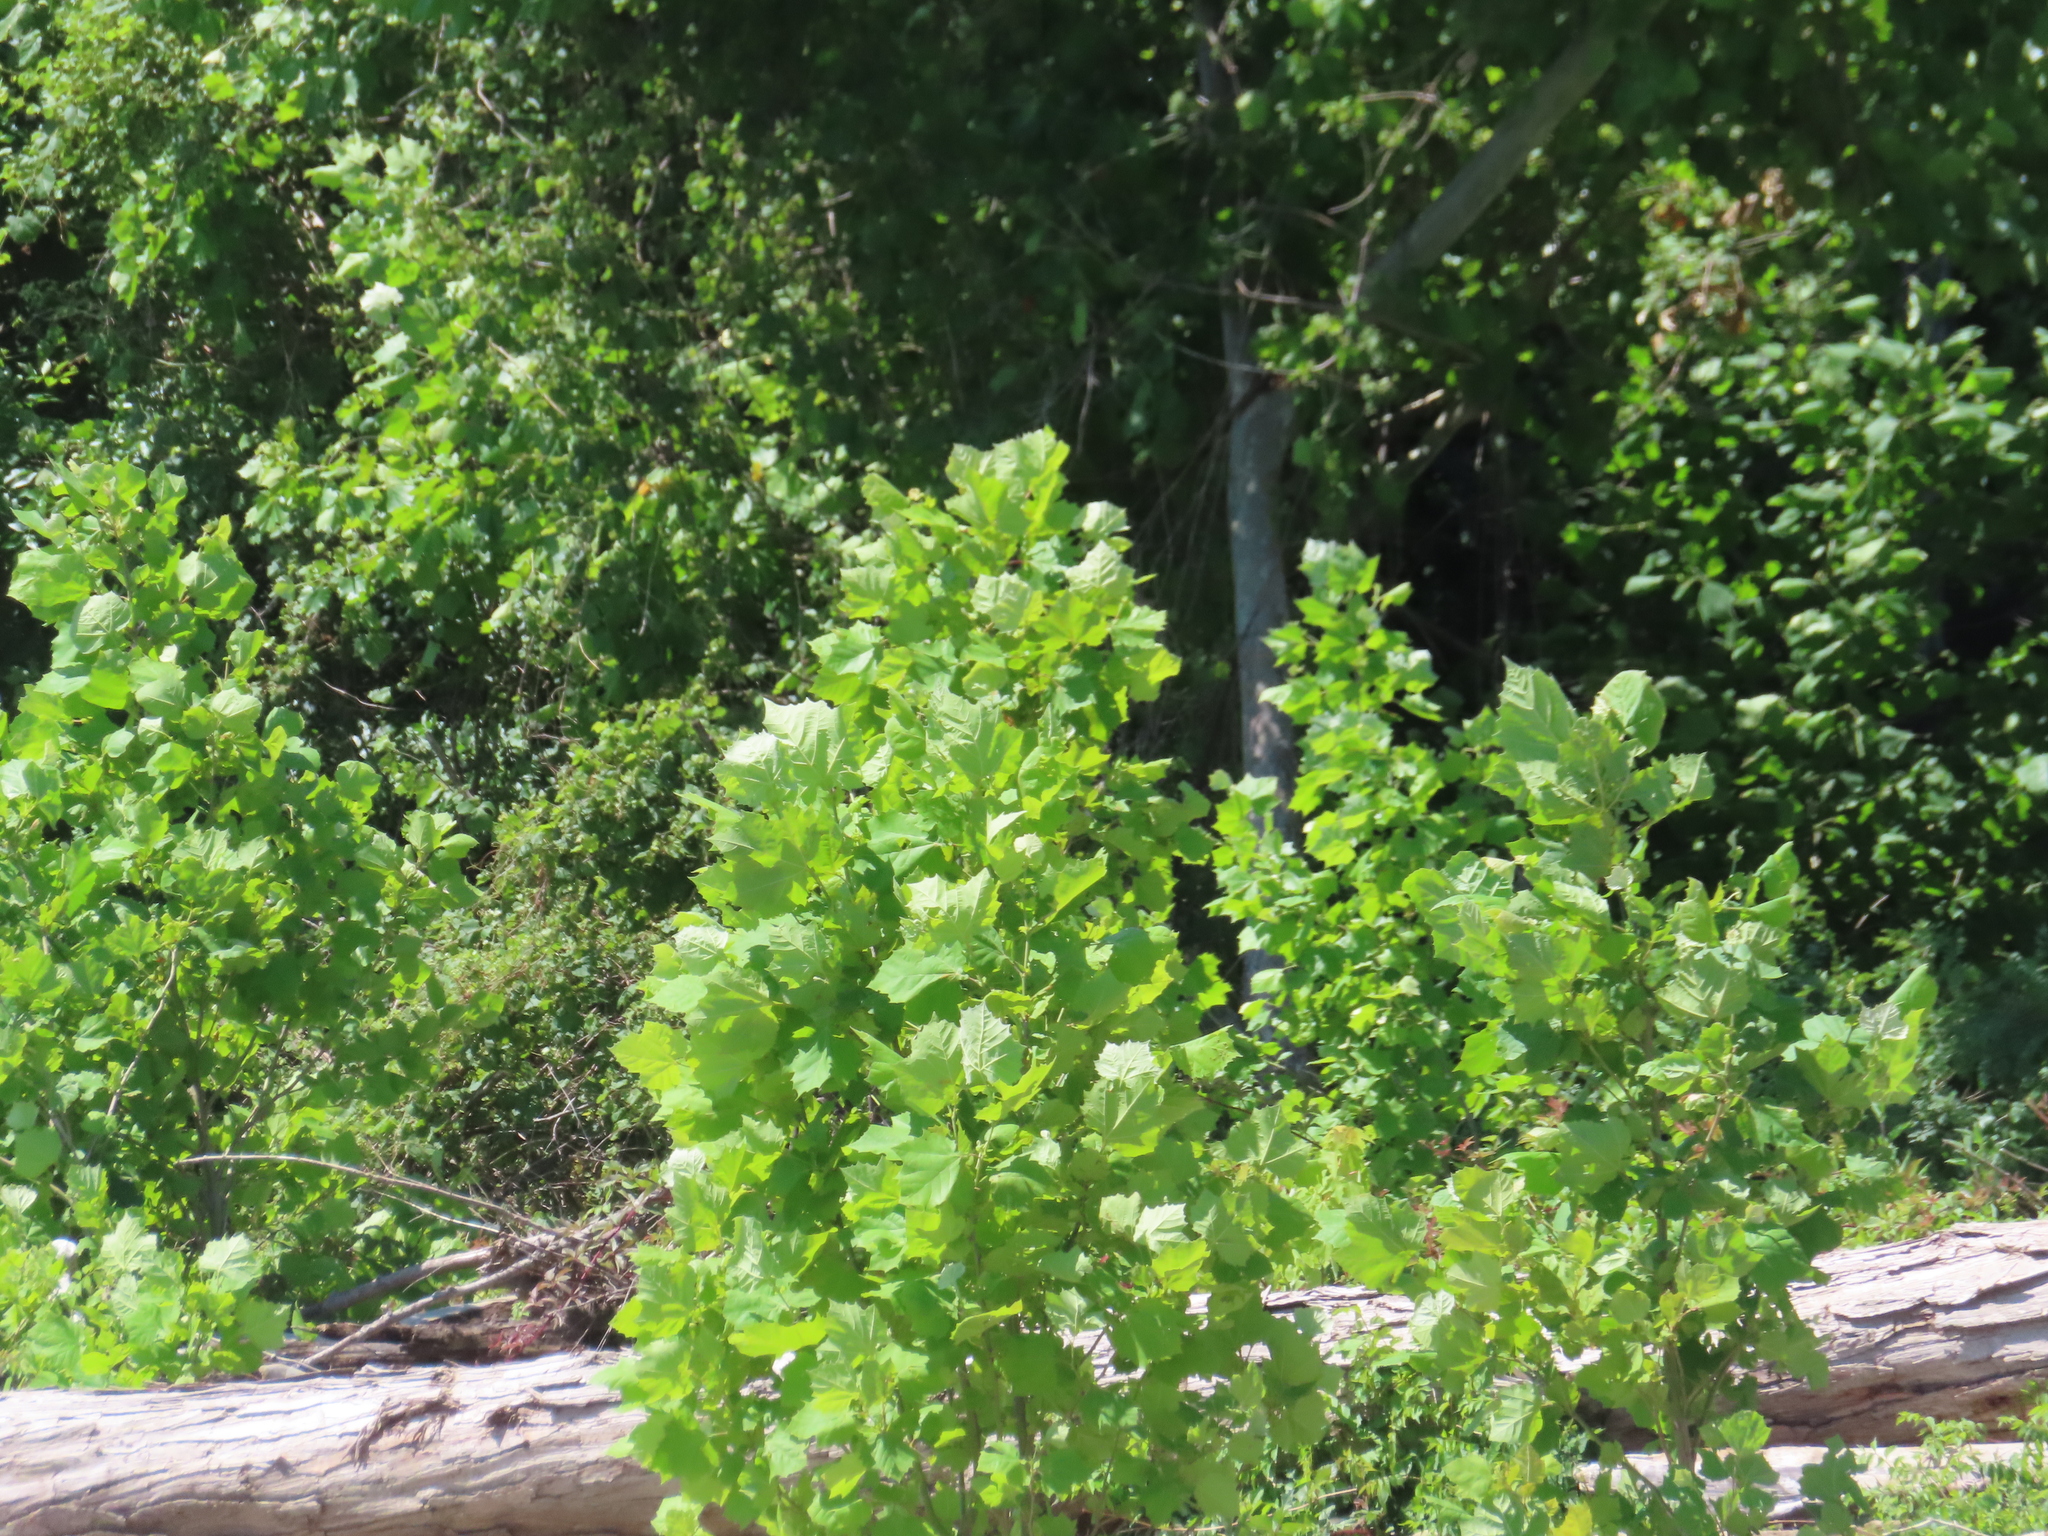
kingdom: Plantae
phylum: Tracheophyta
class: Magnoliopsida
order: Proteales
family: Platanaceae
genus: Platanus
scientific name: Platanus occidentalis
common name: American sycamore
